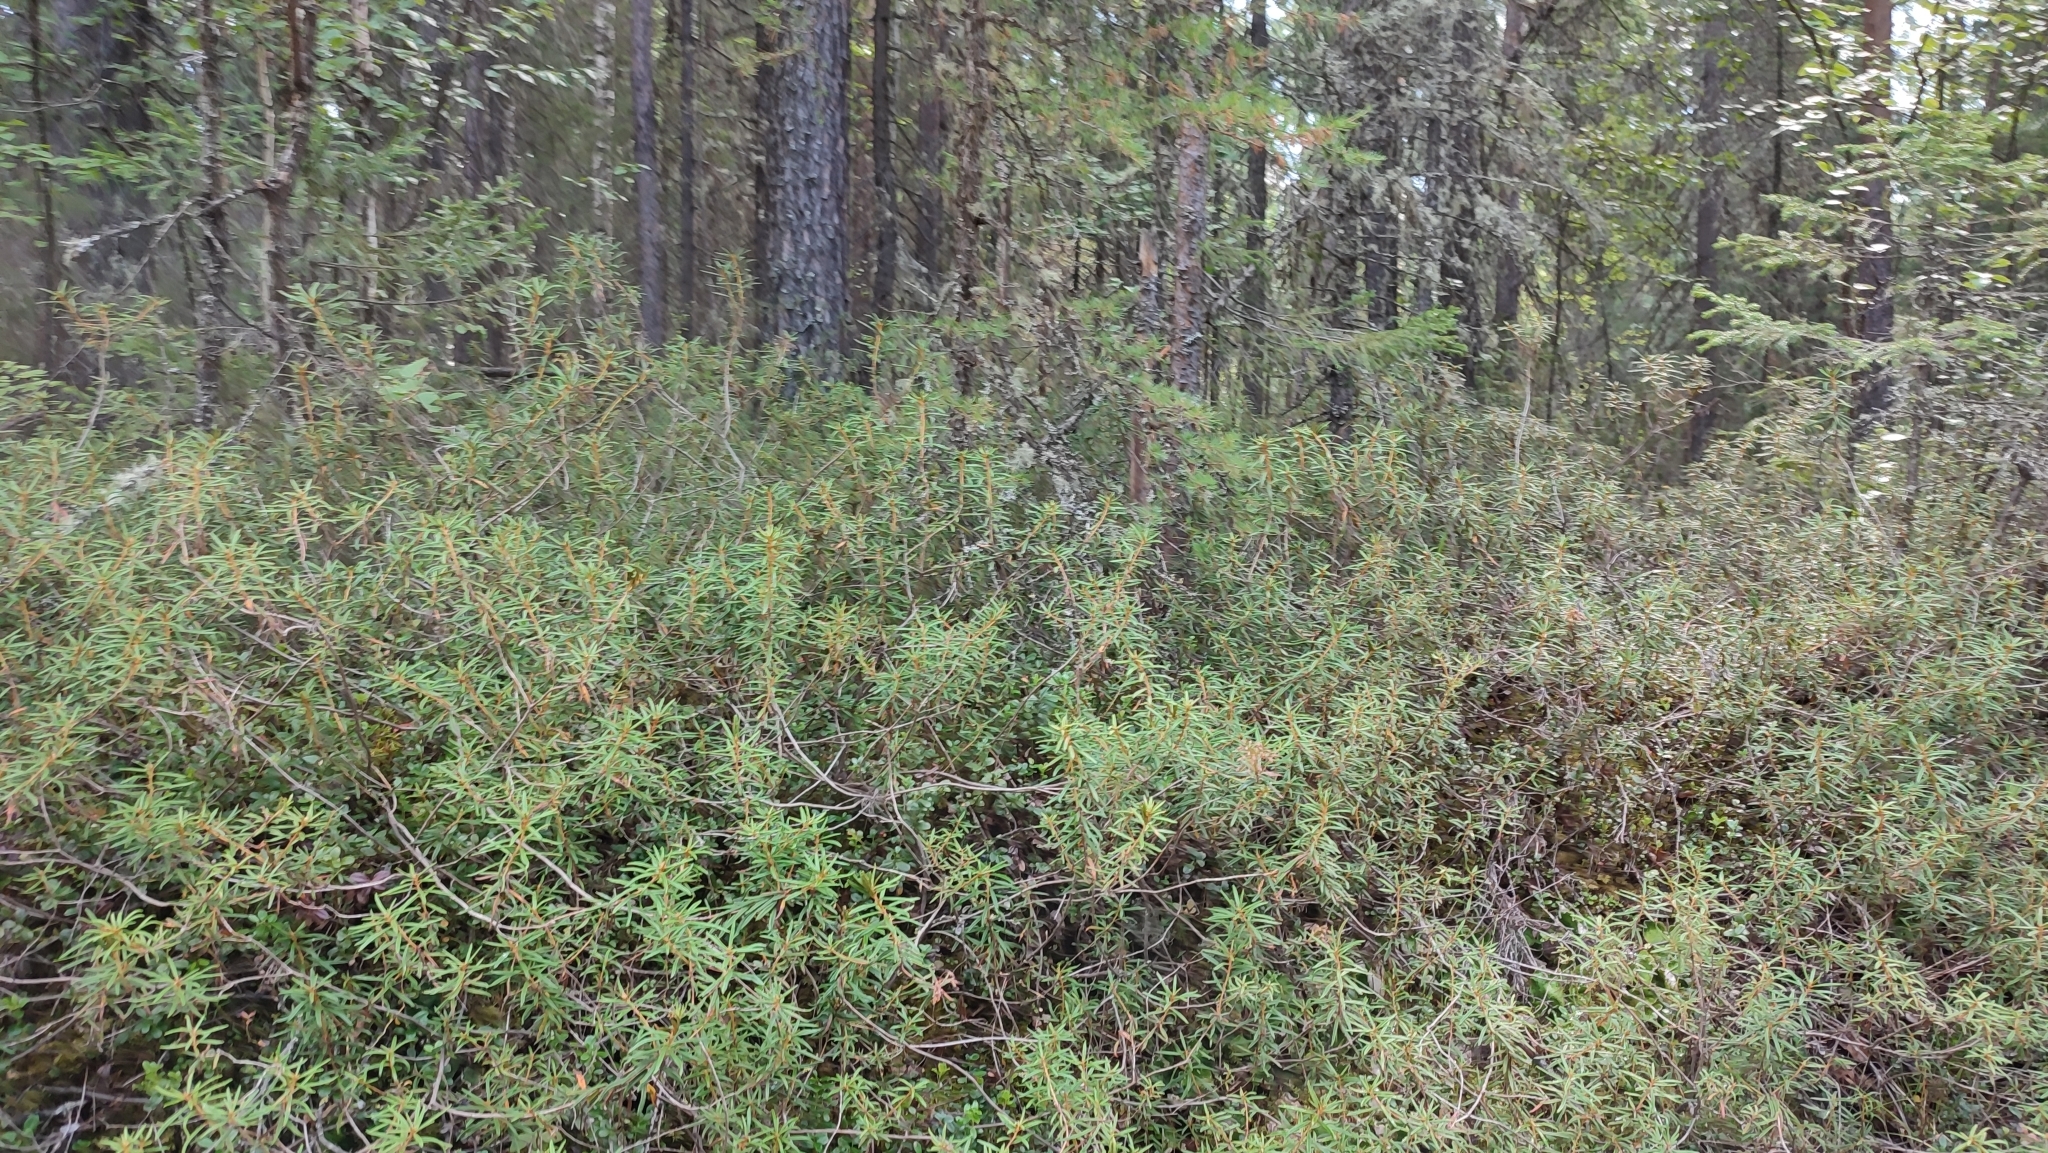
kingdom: Plantae
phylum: Tracheophyta
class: Magnoliopsida
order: Ericales
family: Ericaceae
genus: Rhododendron
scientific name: Rhododendron tomentosum
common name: Marsh labrador tea
